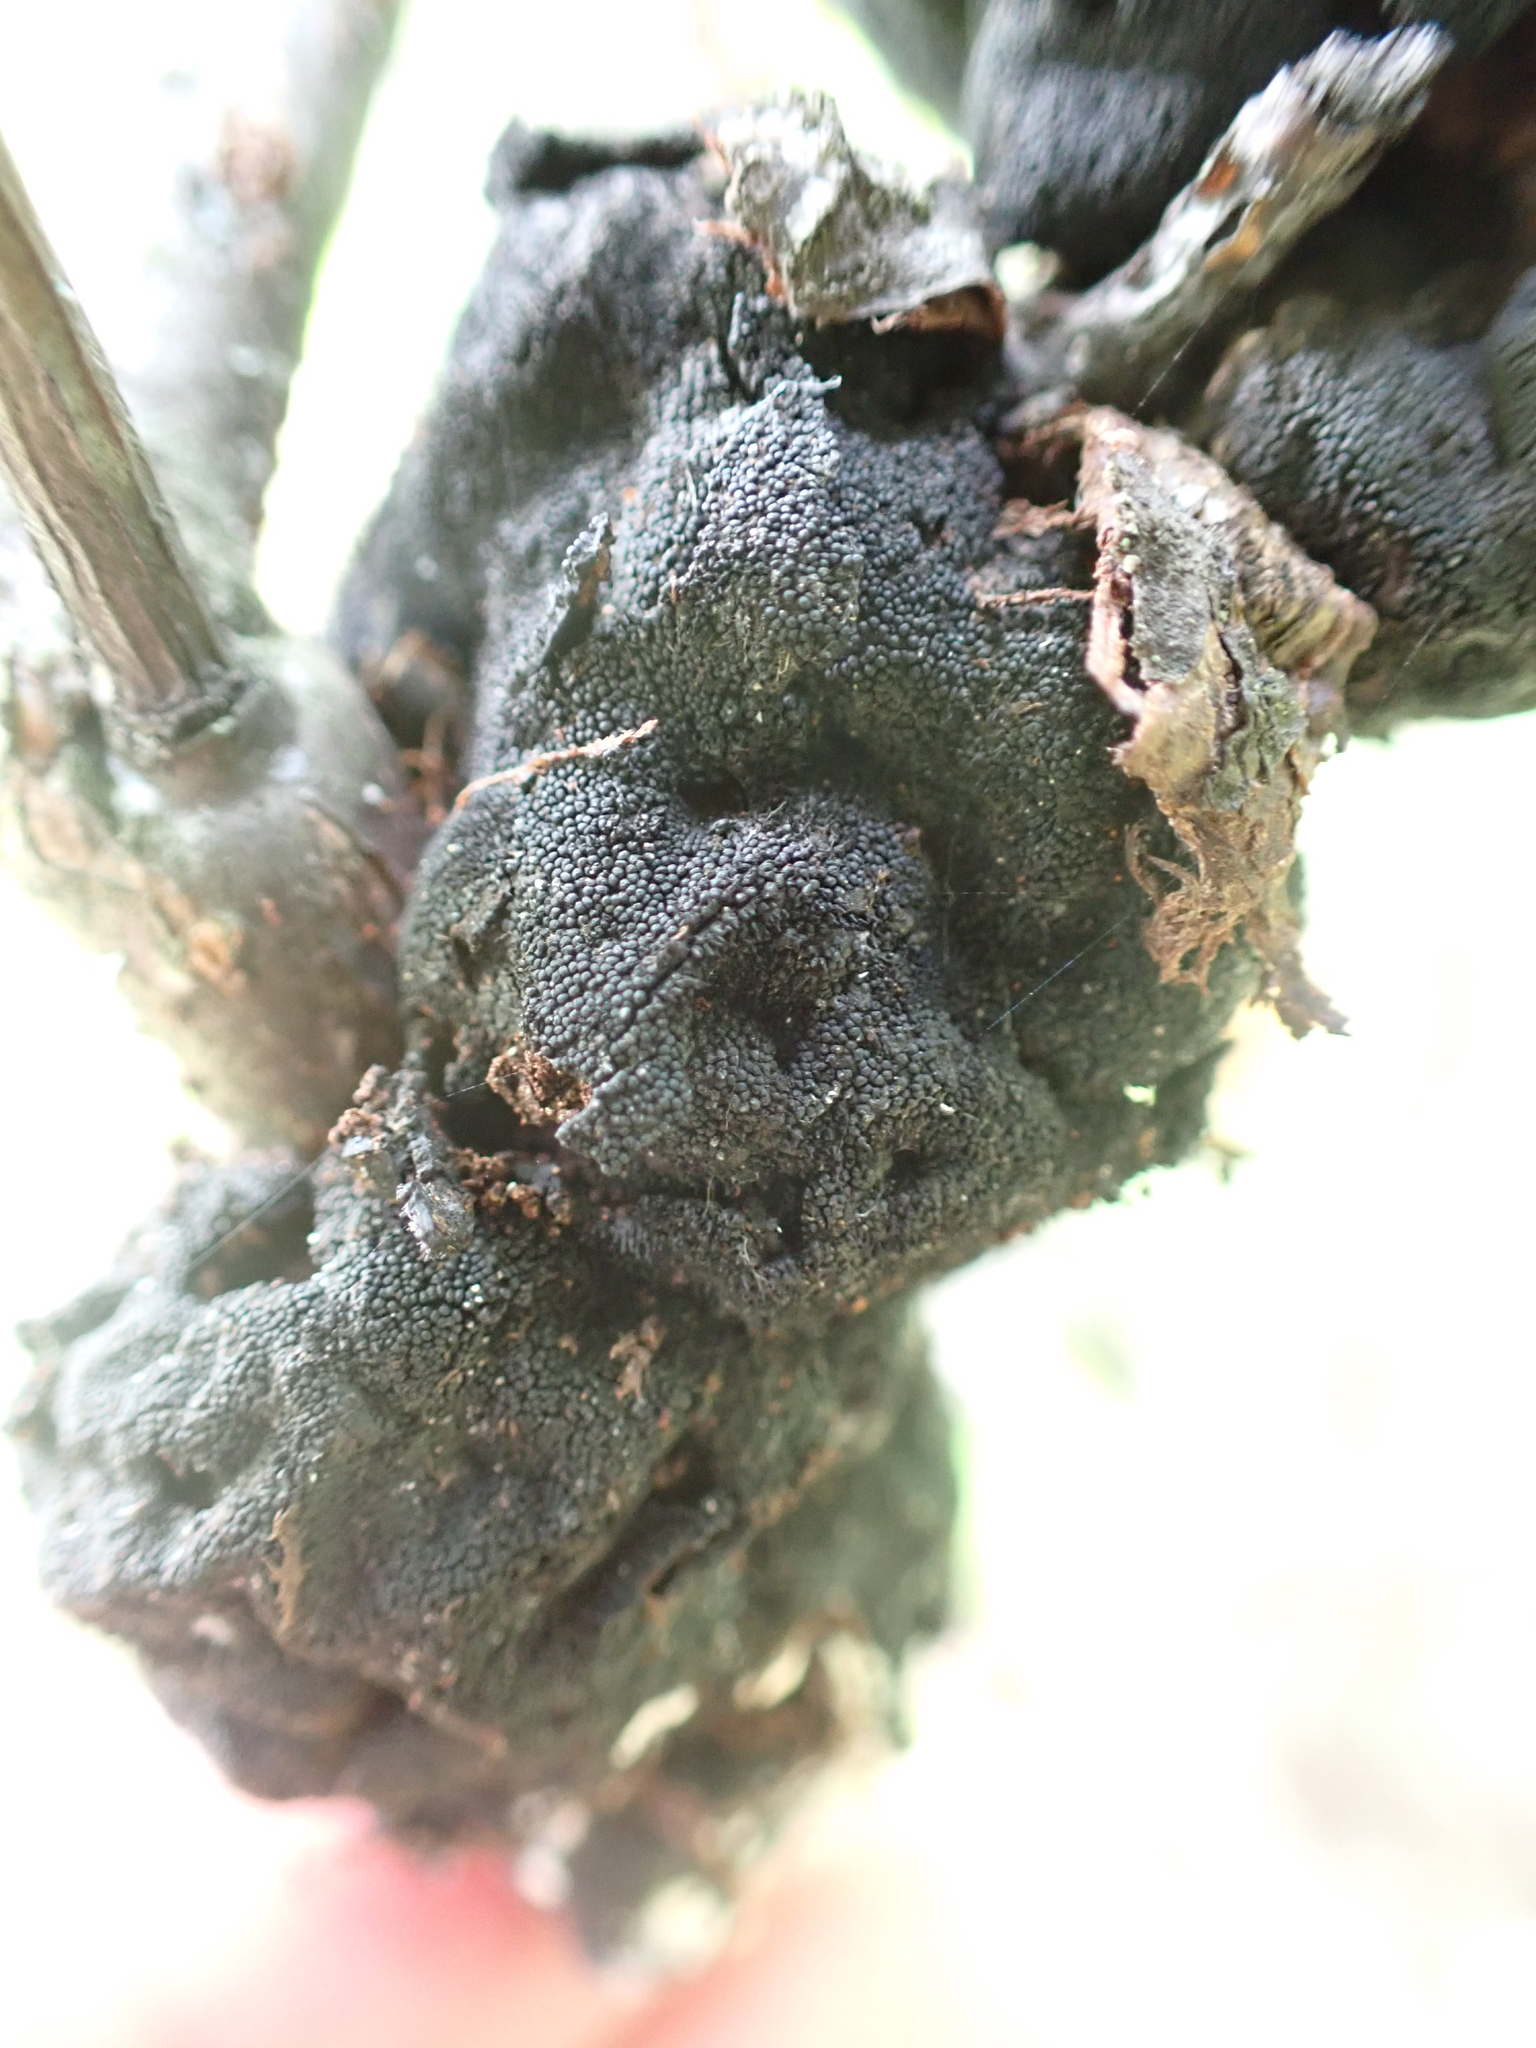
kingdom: Fungi
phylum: Ascomycota
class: Dothideomycetes
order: Venturiales
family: Venturiaceae
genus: Apiosporina
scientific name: Apiosporina morbosa
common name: Black knot
